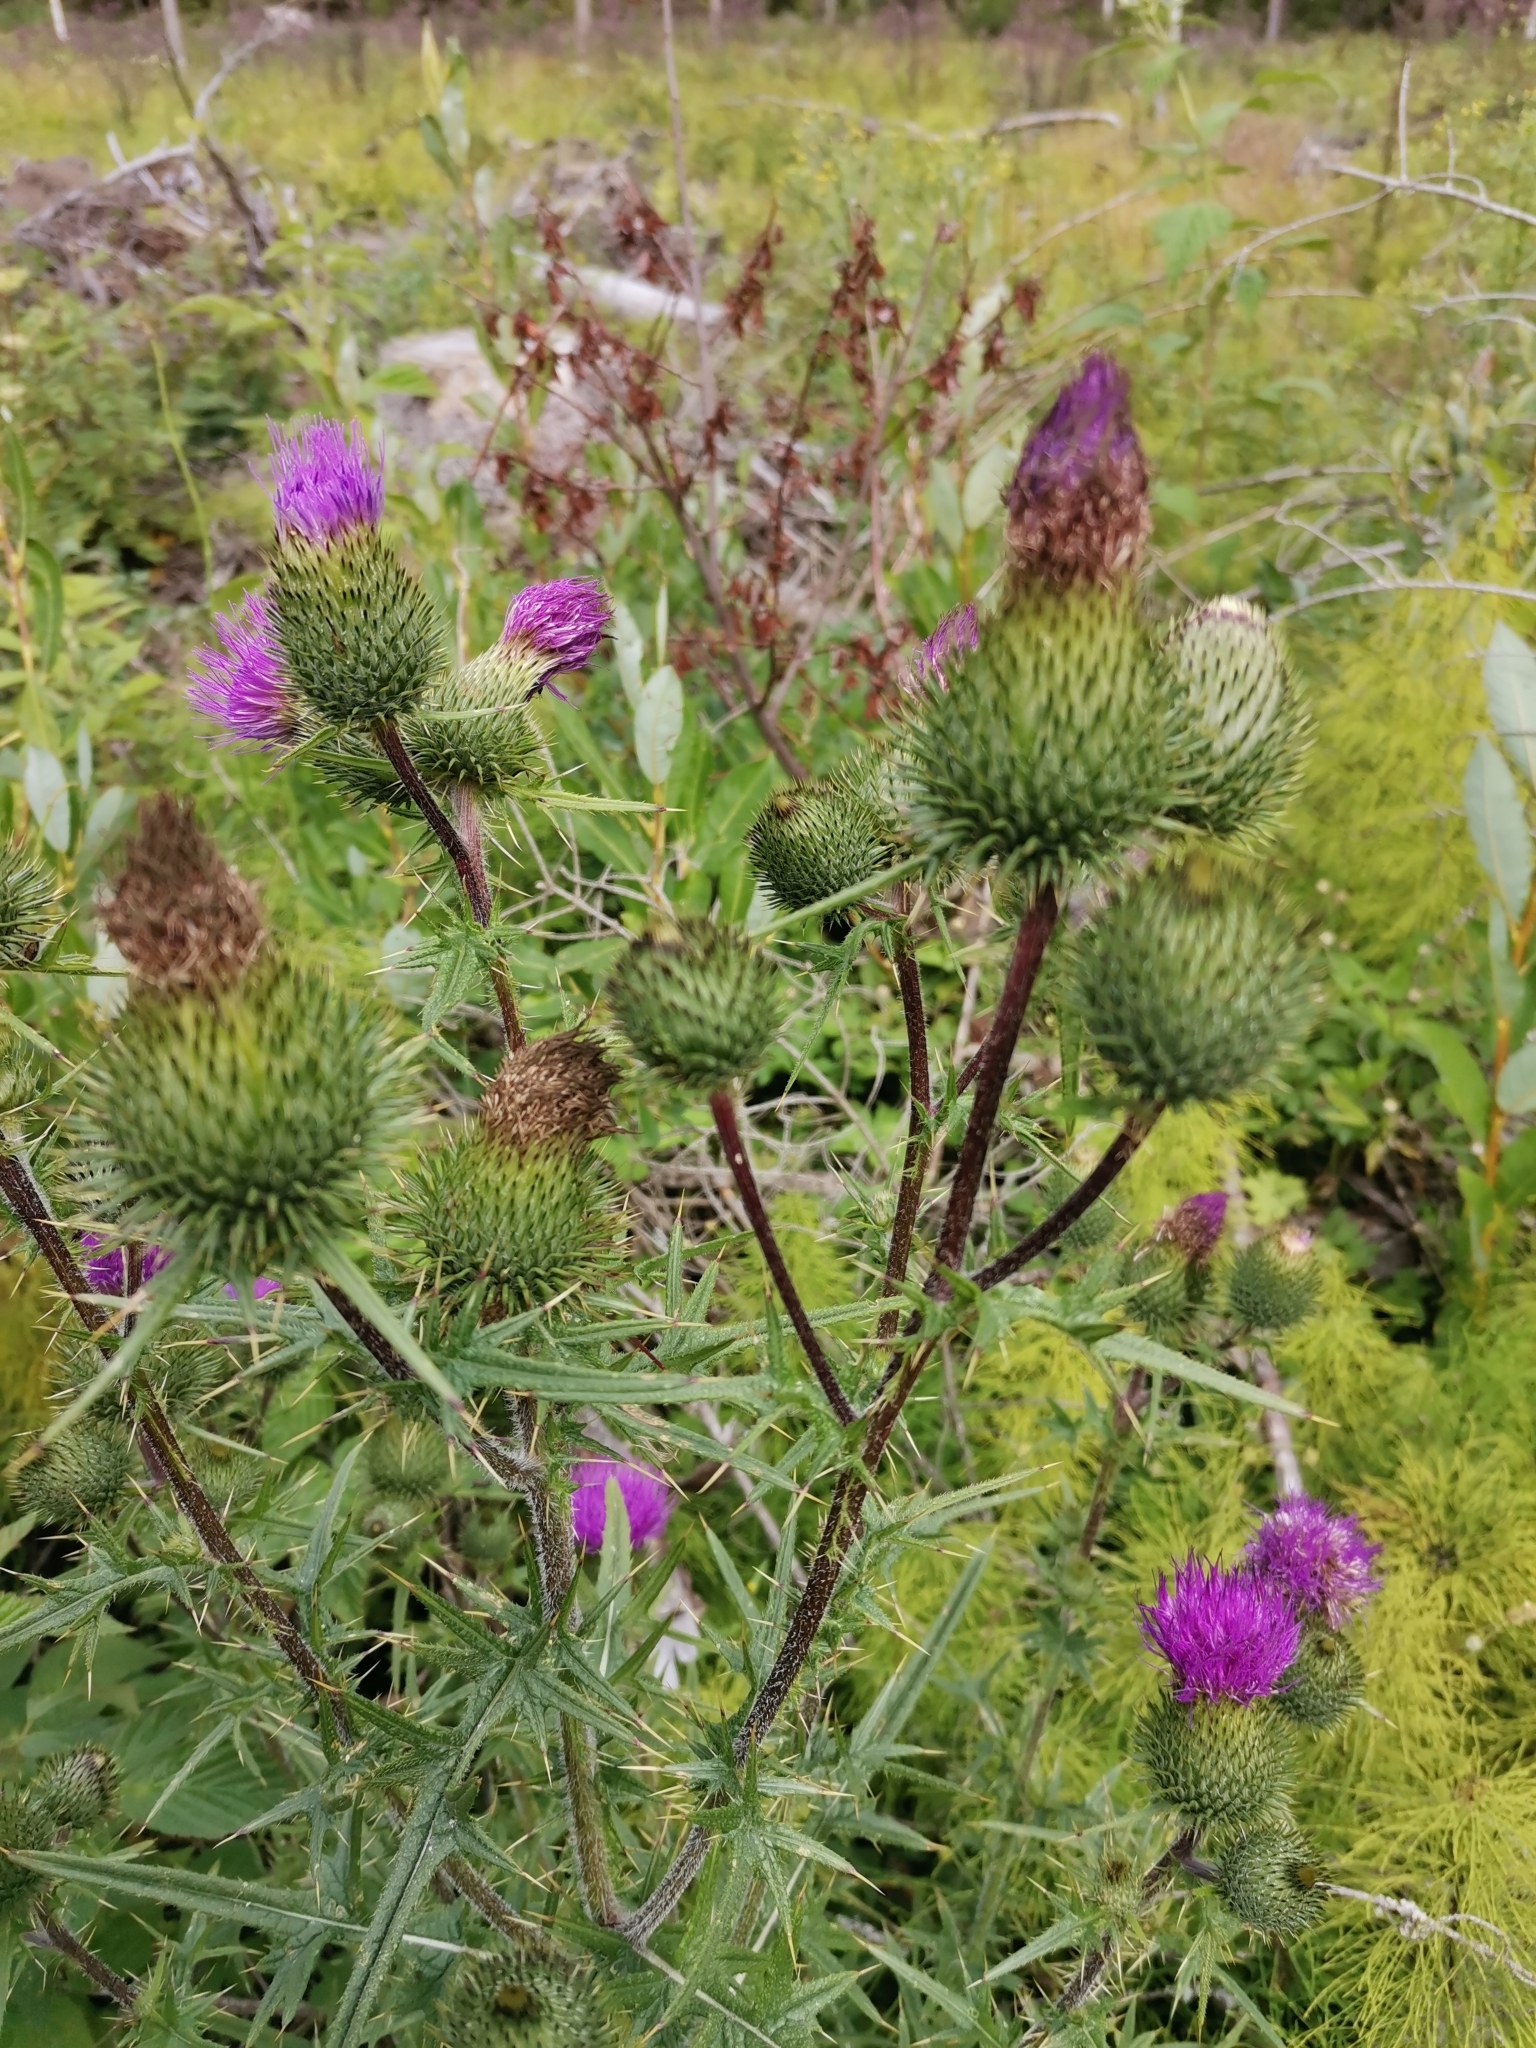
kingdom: Plantae
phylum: Tracheophyta
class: Magnoliopsida
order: Asterales
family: Asteraceae
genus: Cirsium
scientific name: Cirsium vulgare
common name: Bull thistle
